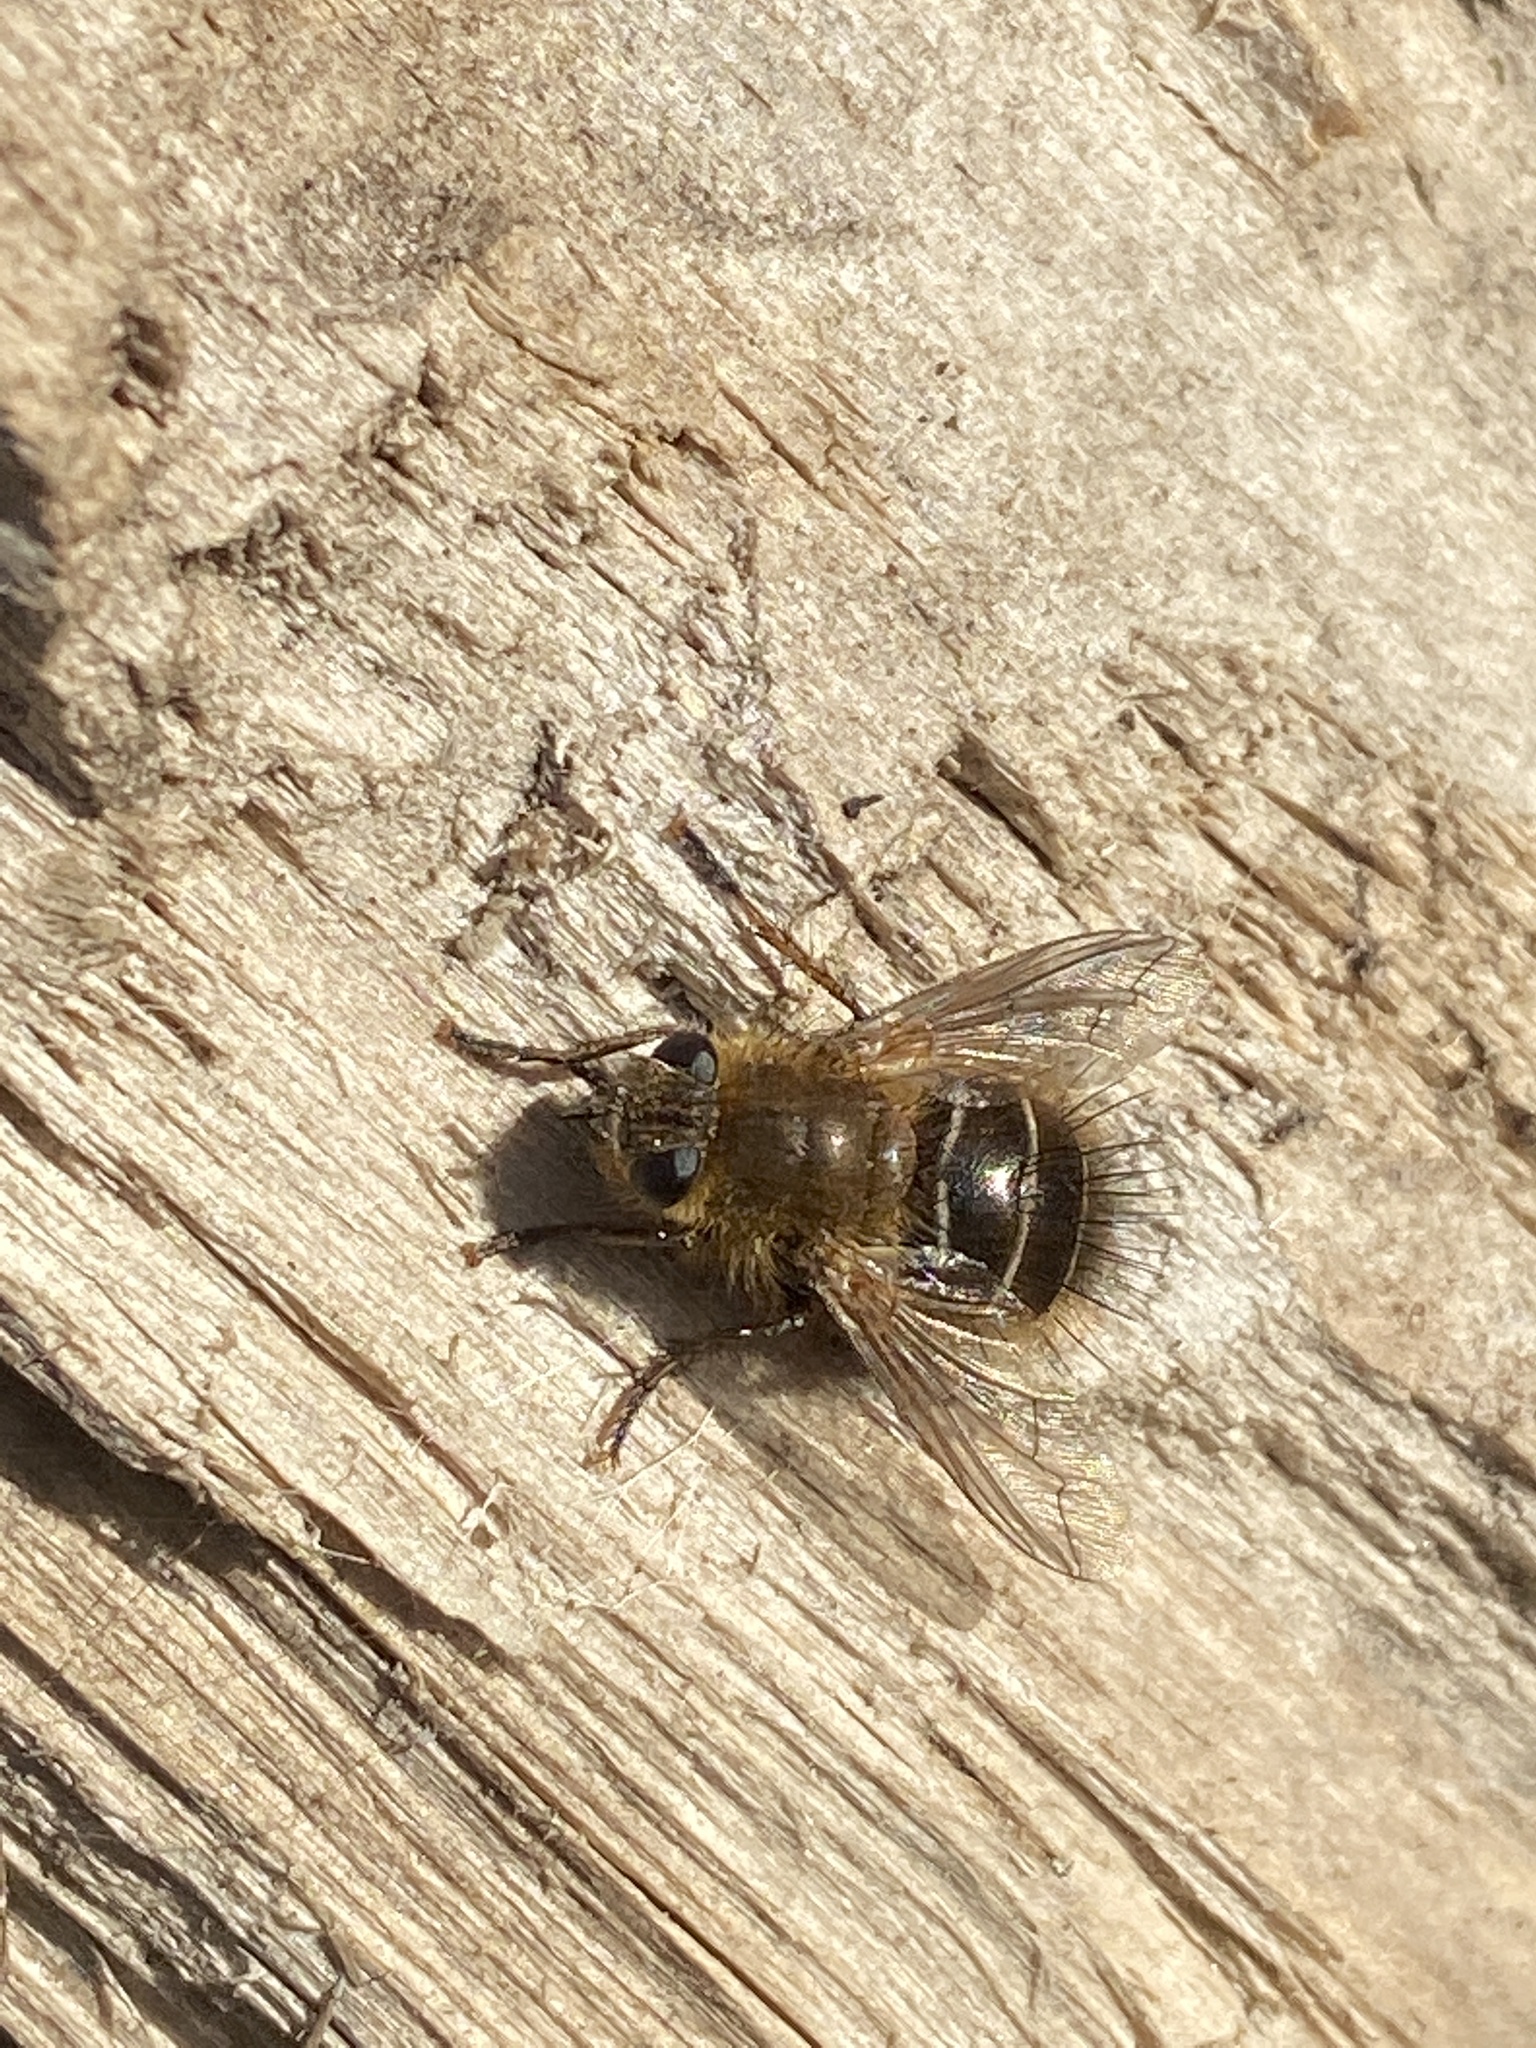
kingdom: Animalia
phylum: Arthropoda
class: Insecta
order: Diptera
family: Tachinidae
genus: Tachina
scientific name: Tachina ursina
